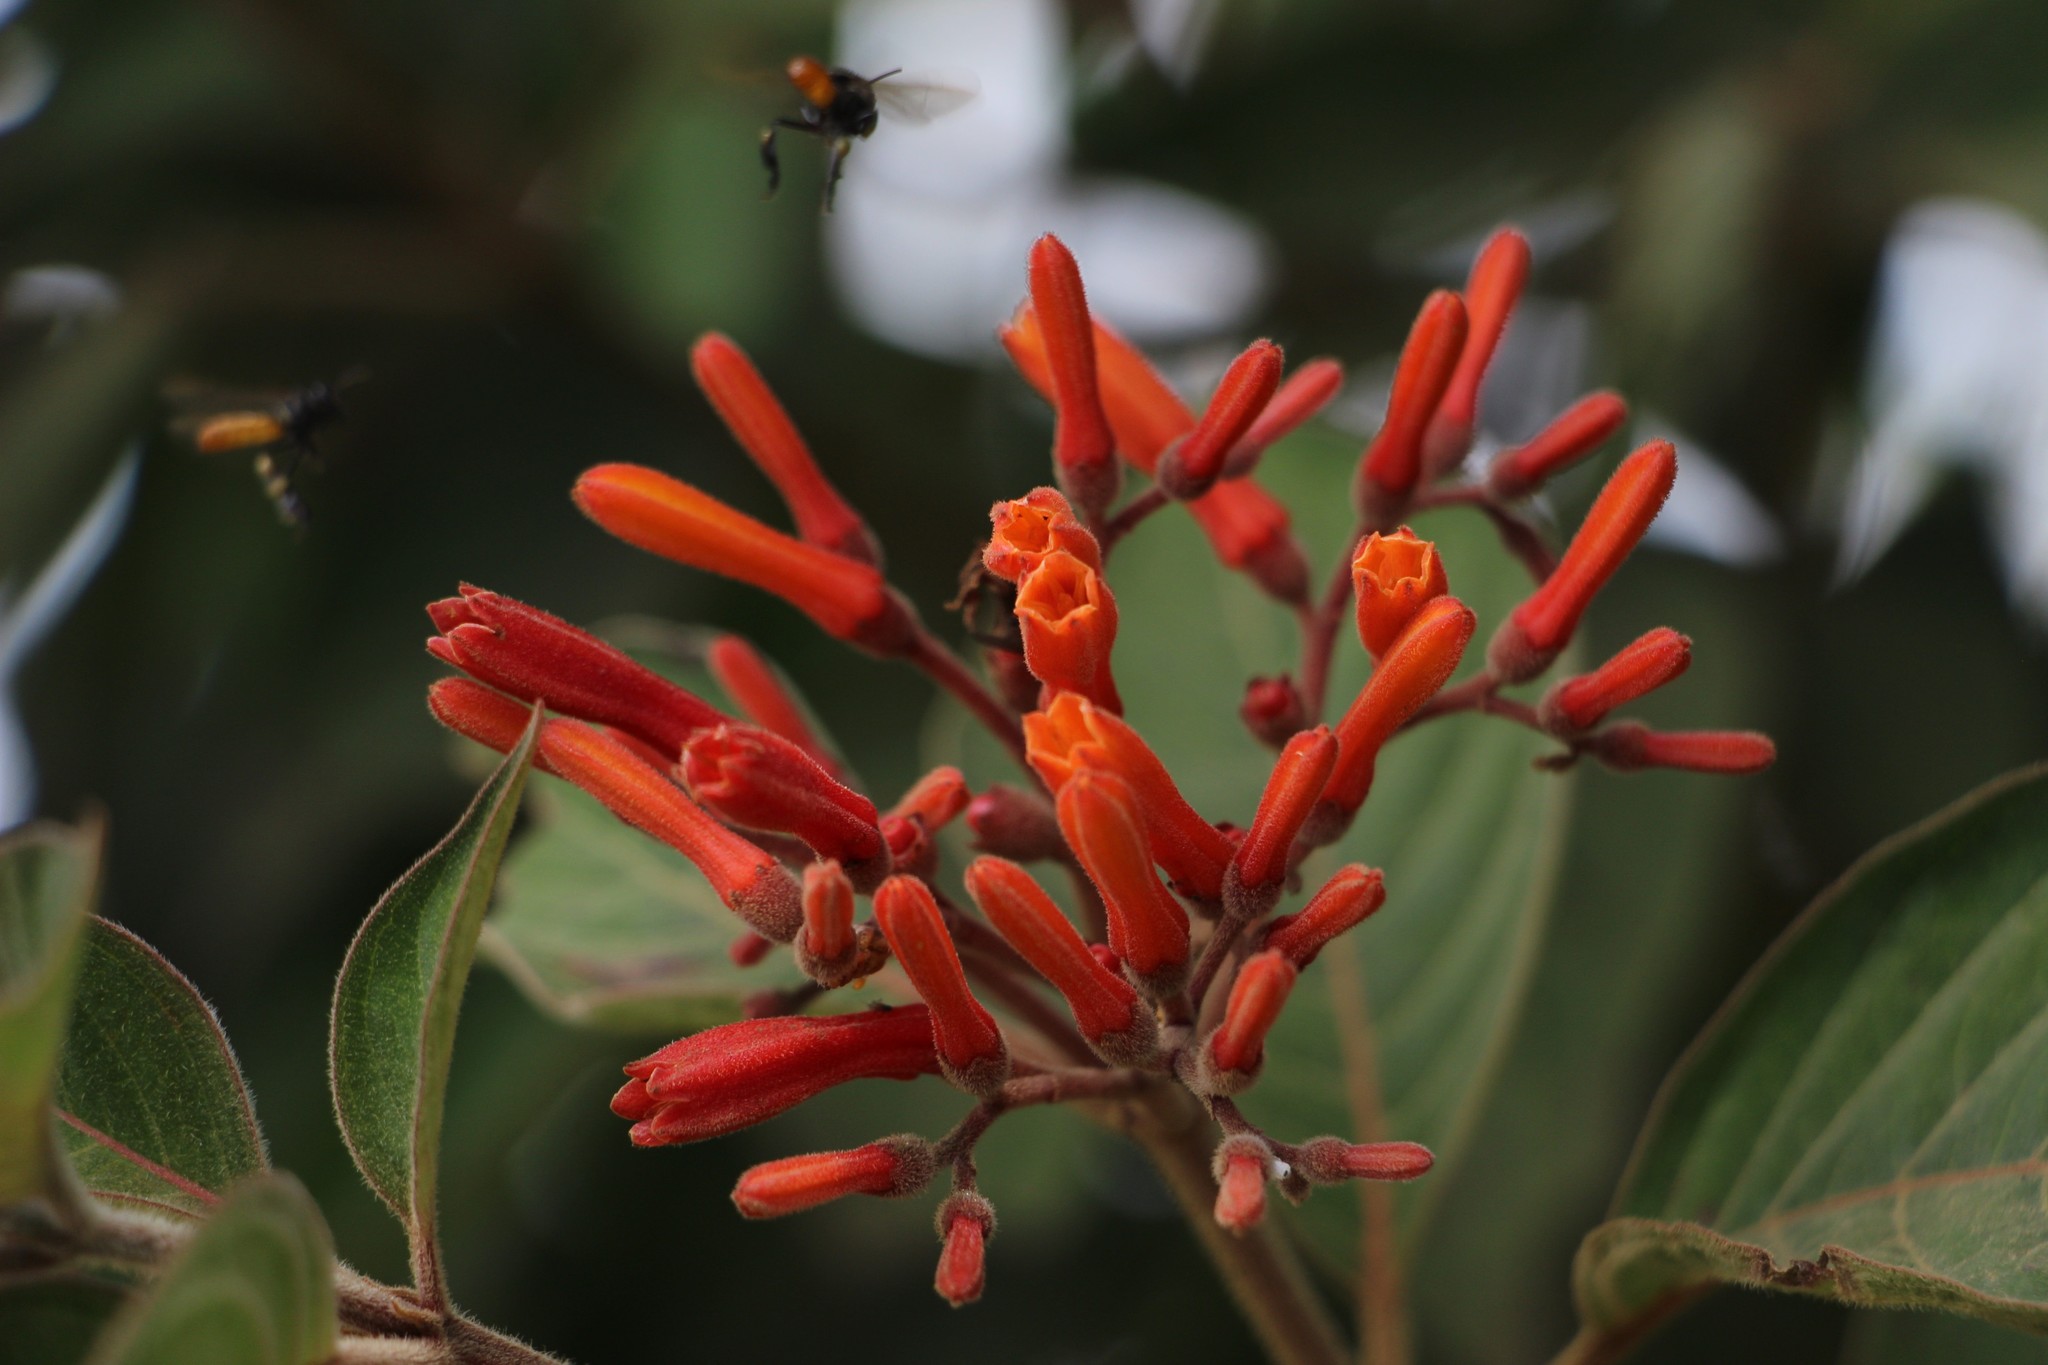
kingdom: Plantae
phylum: Tracheophyta
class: Magnoliopsida
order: Gentianales
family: Rubiaceae
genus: Hamelia
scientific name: Hamelia patens
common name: Redhead
